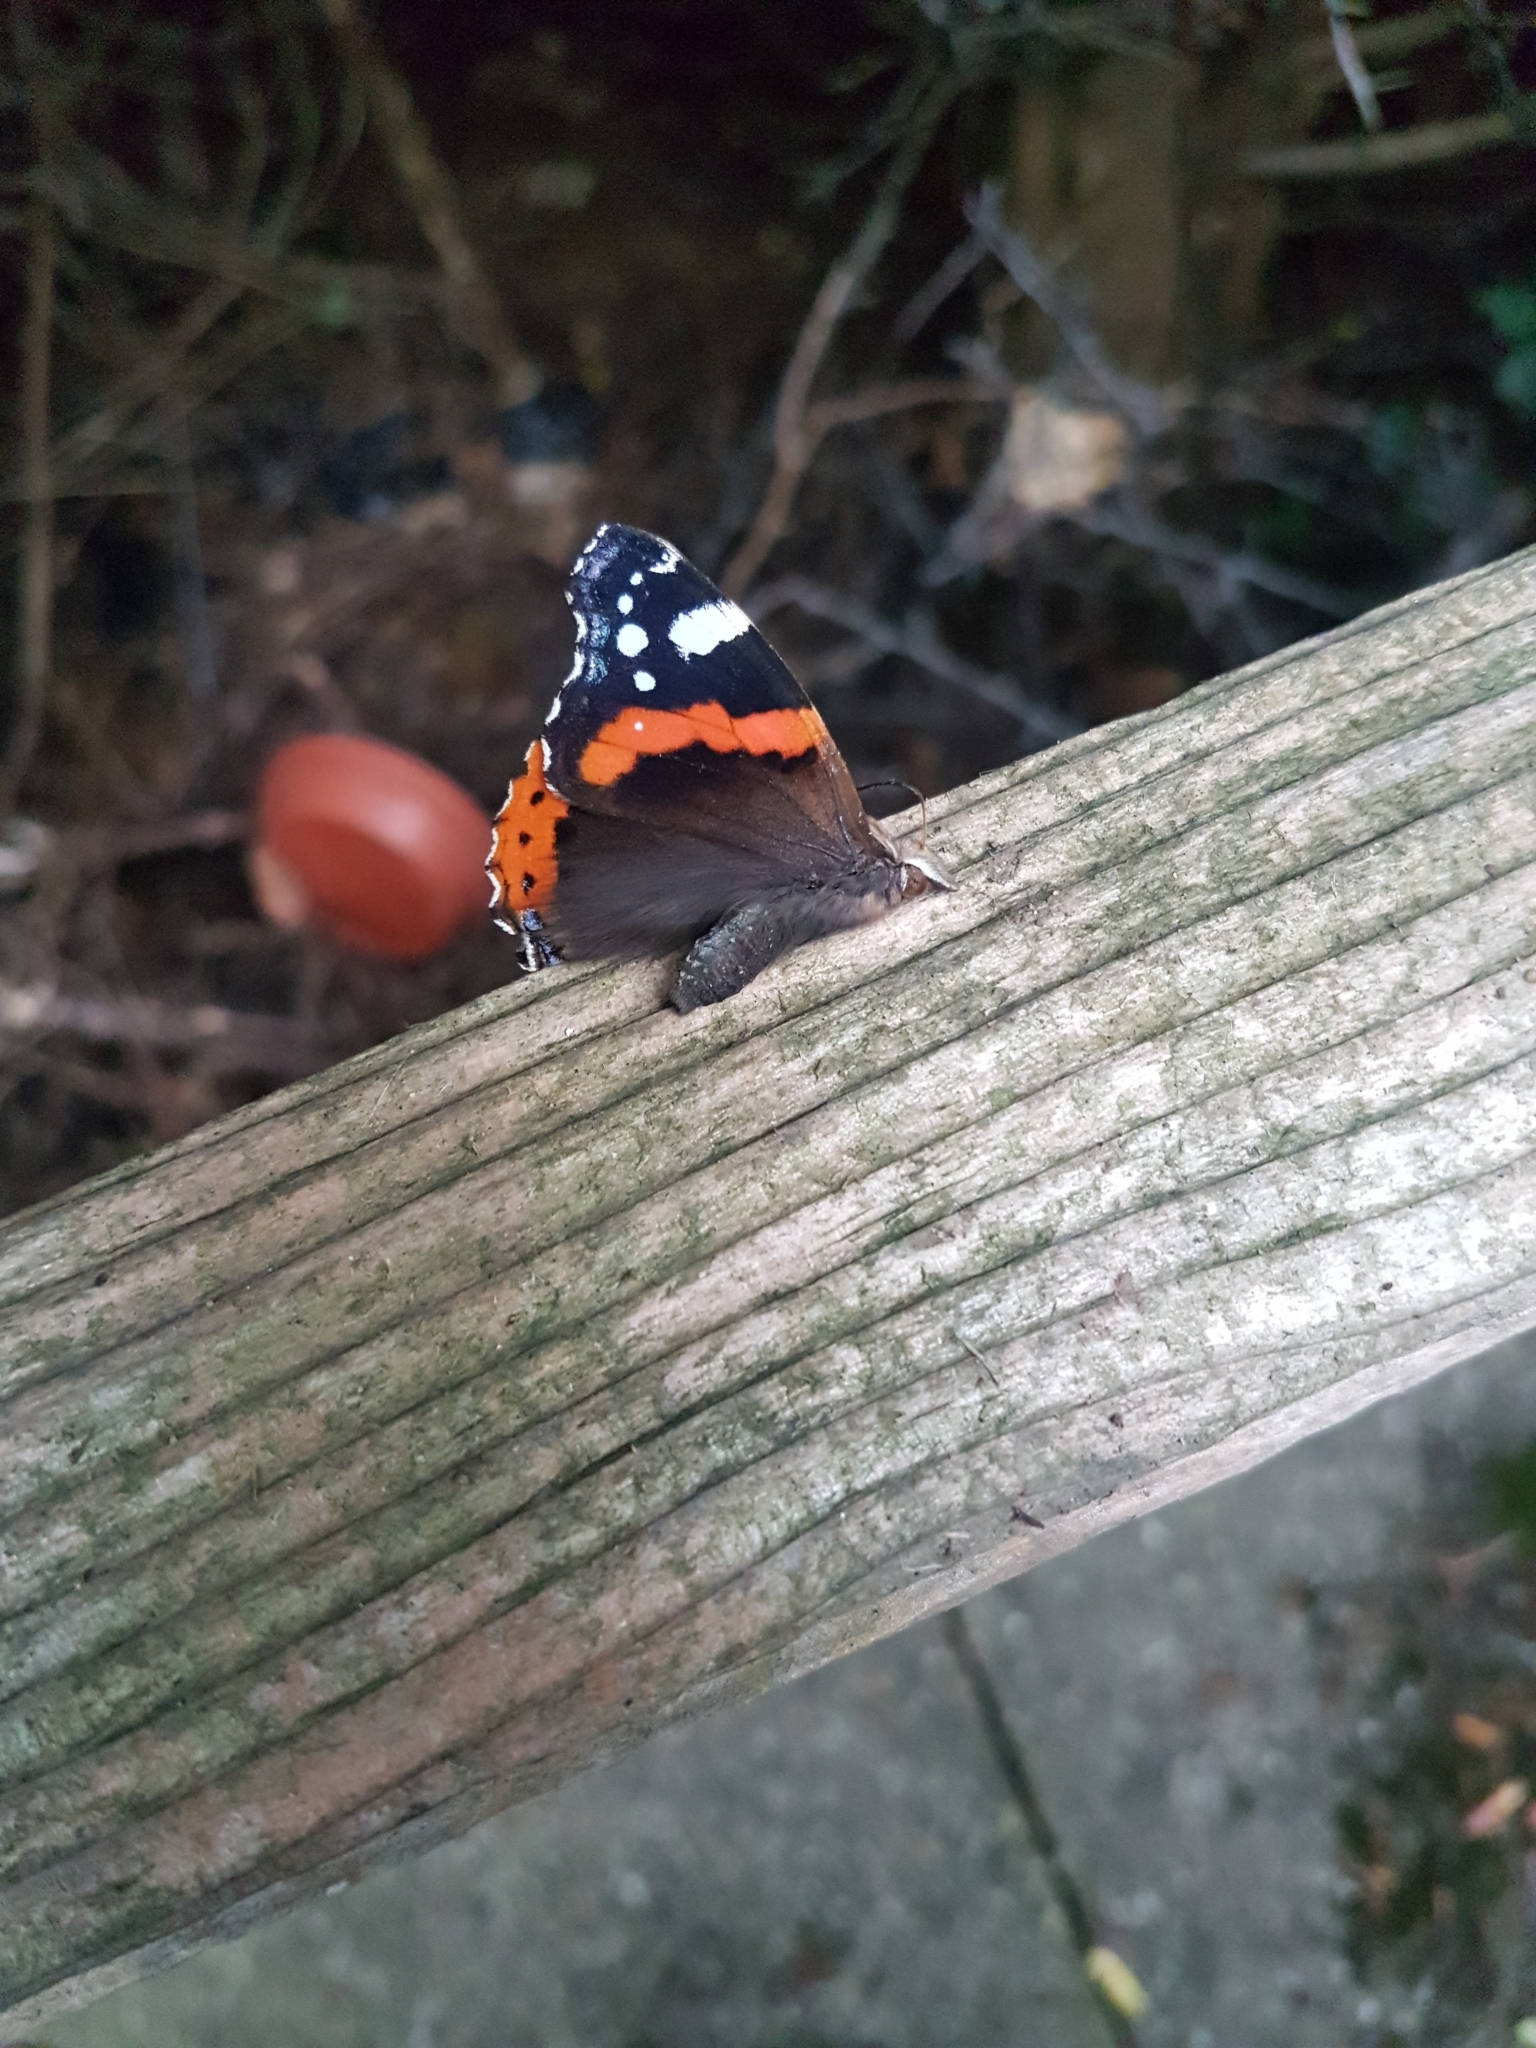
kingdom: Animalia
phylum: Arthropoda
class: Insecta
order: Lepidoptera
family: Nymphalidae
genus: Vanessa
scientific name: Vanessa atalanta
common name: Red admiral
